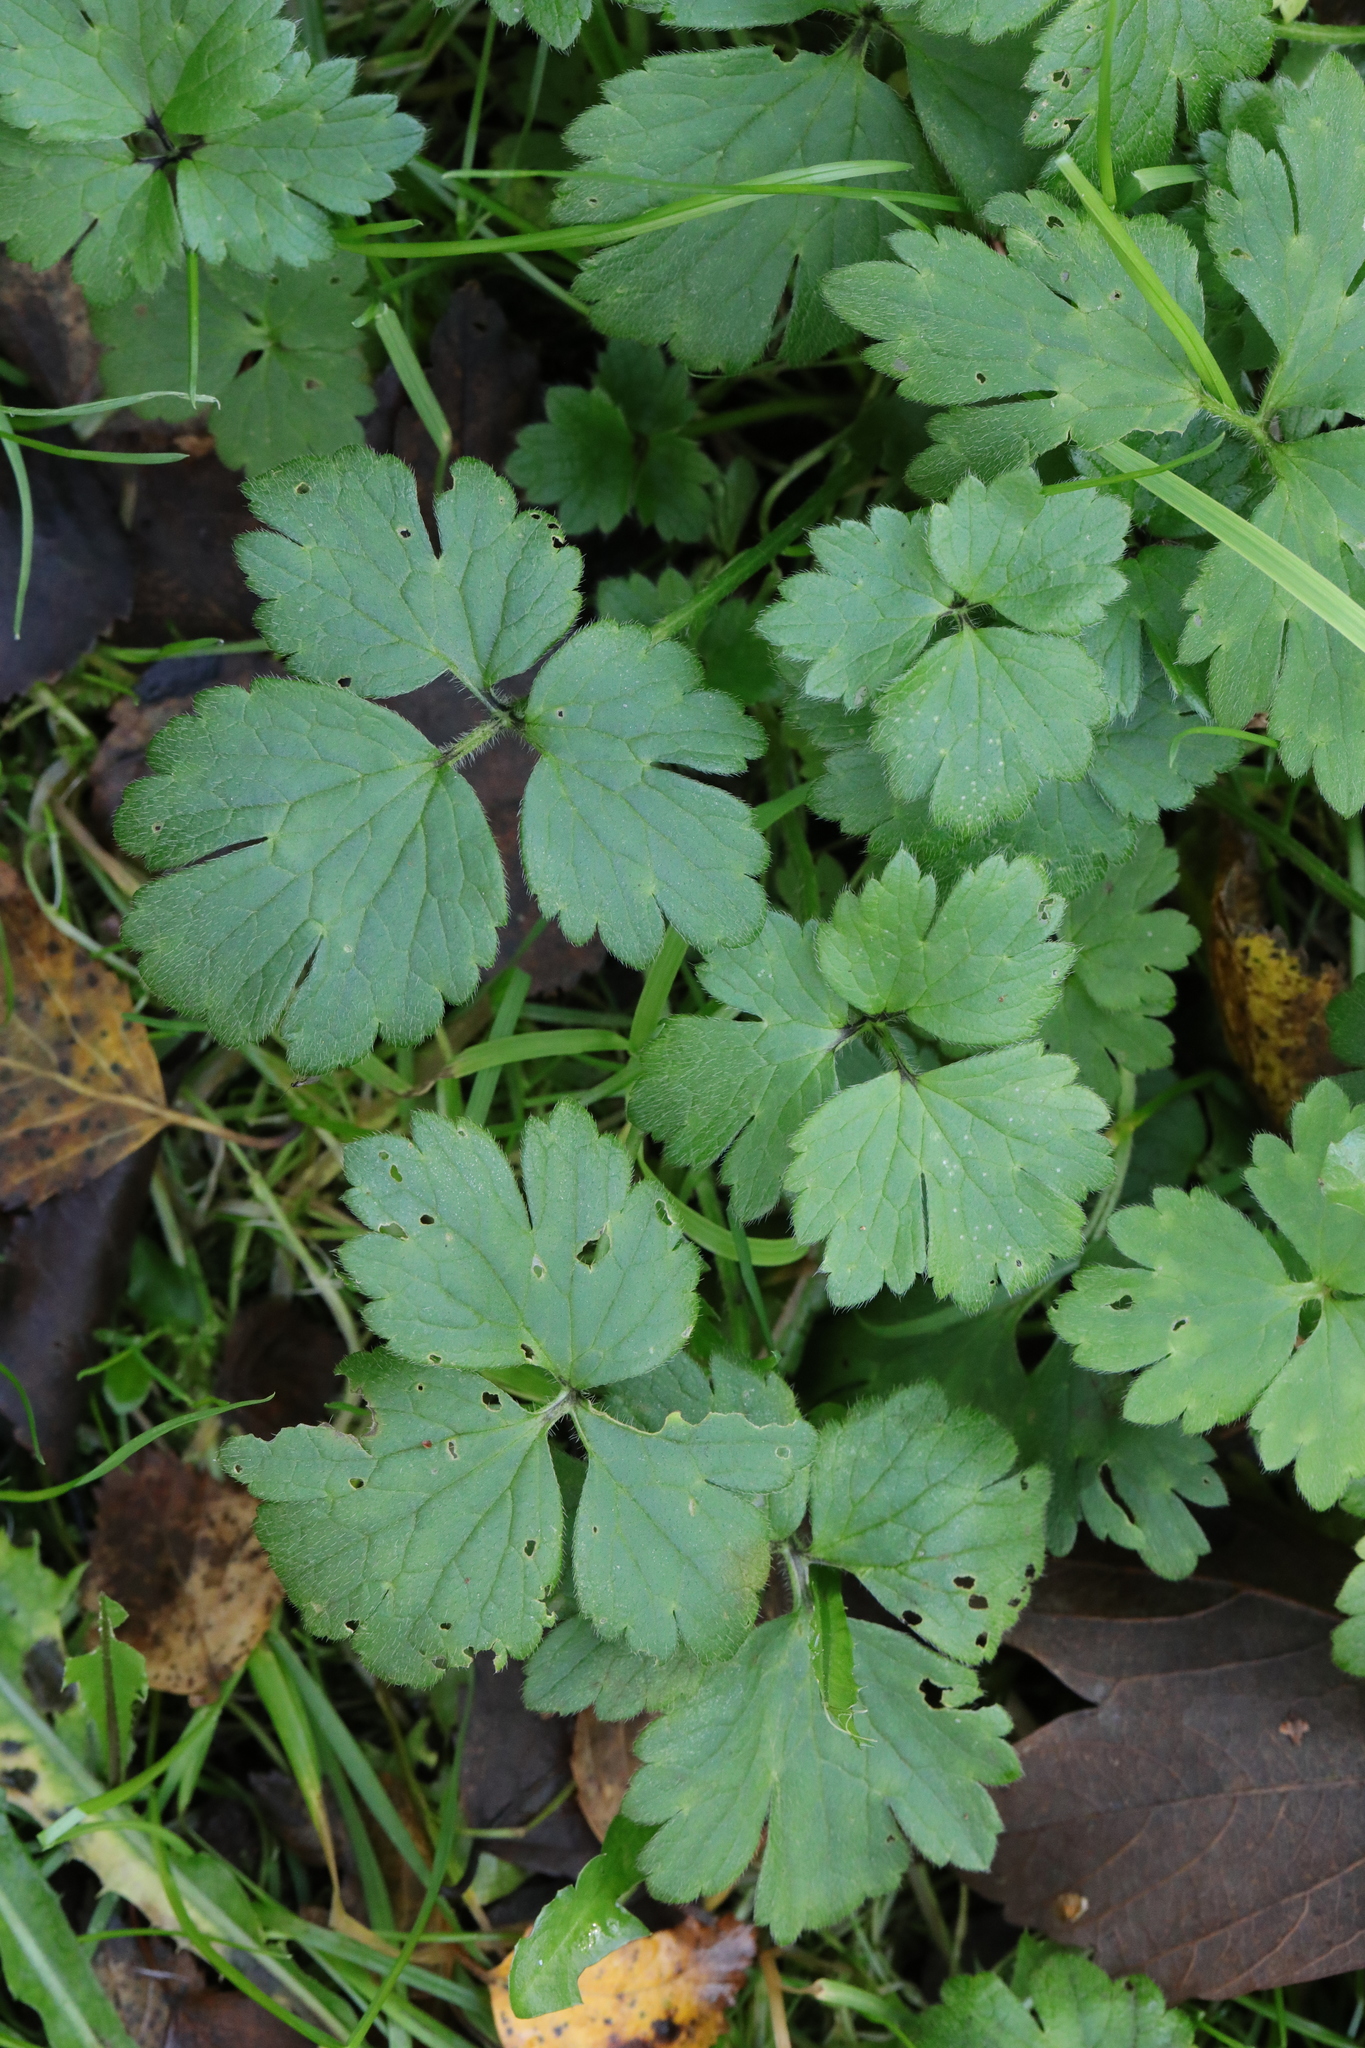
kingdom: Plantae
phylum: Tracheophyta
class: Magnoliopsida
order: Ranunculales
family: Ranunculaceae
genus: Ranunculus
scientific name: Ranunculus repens
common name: Creeping buttercup
